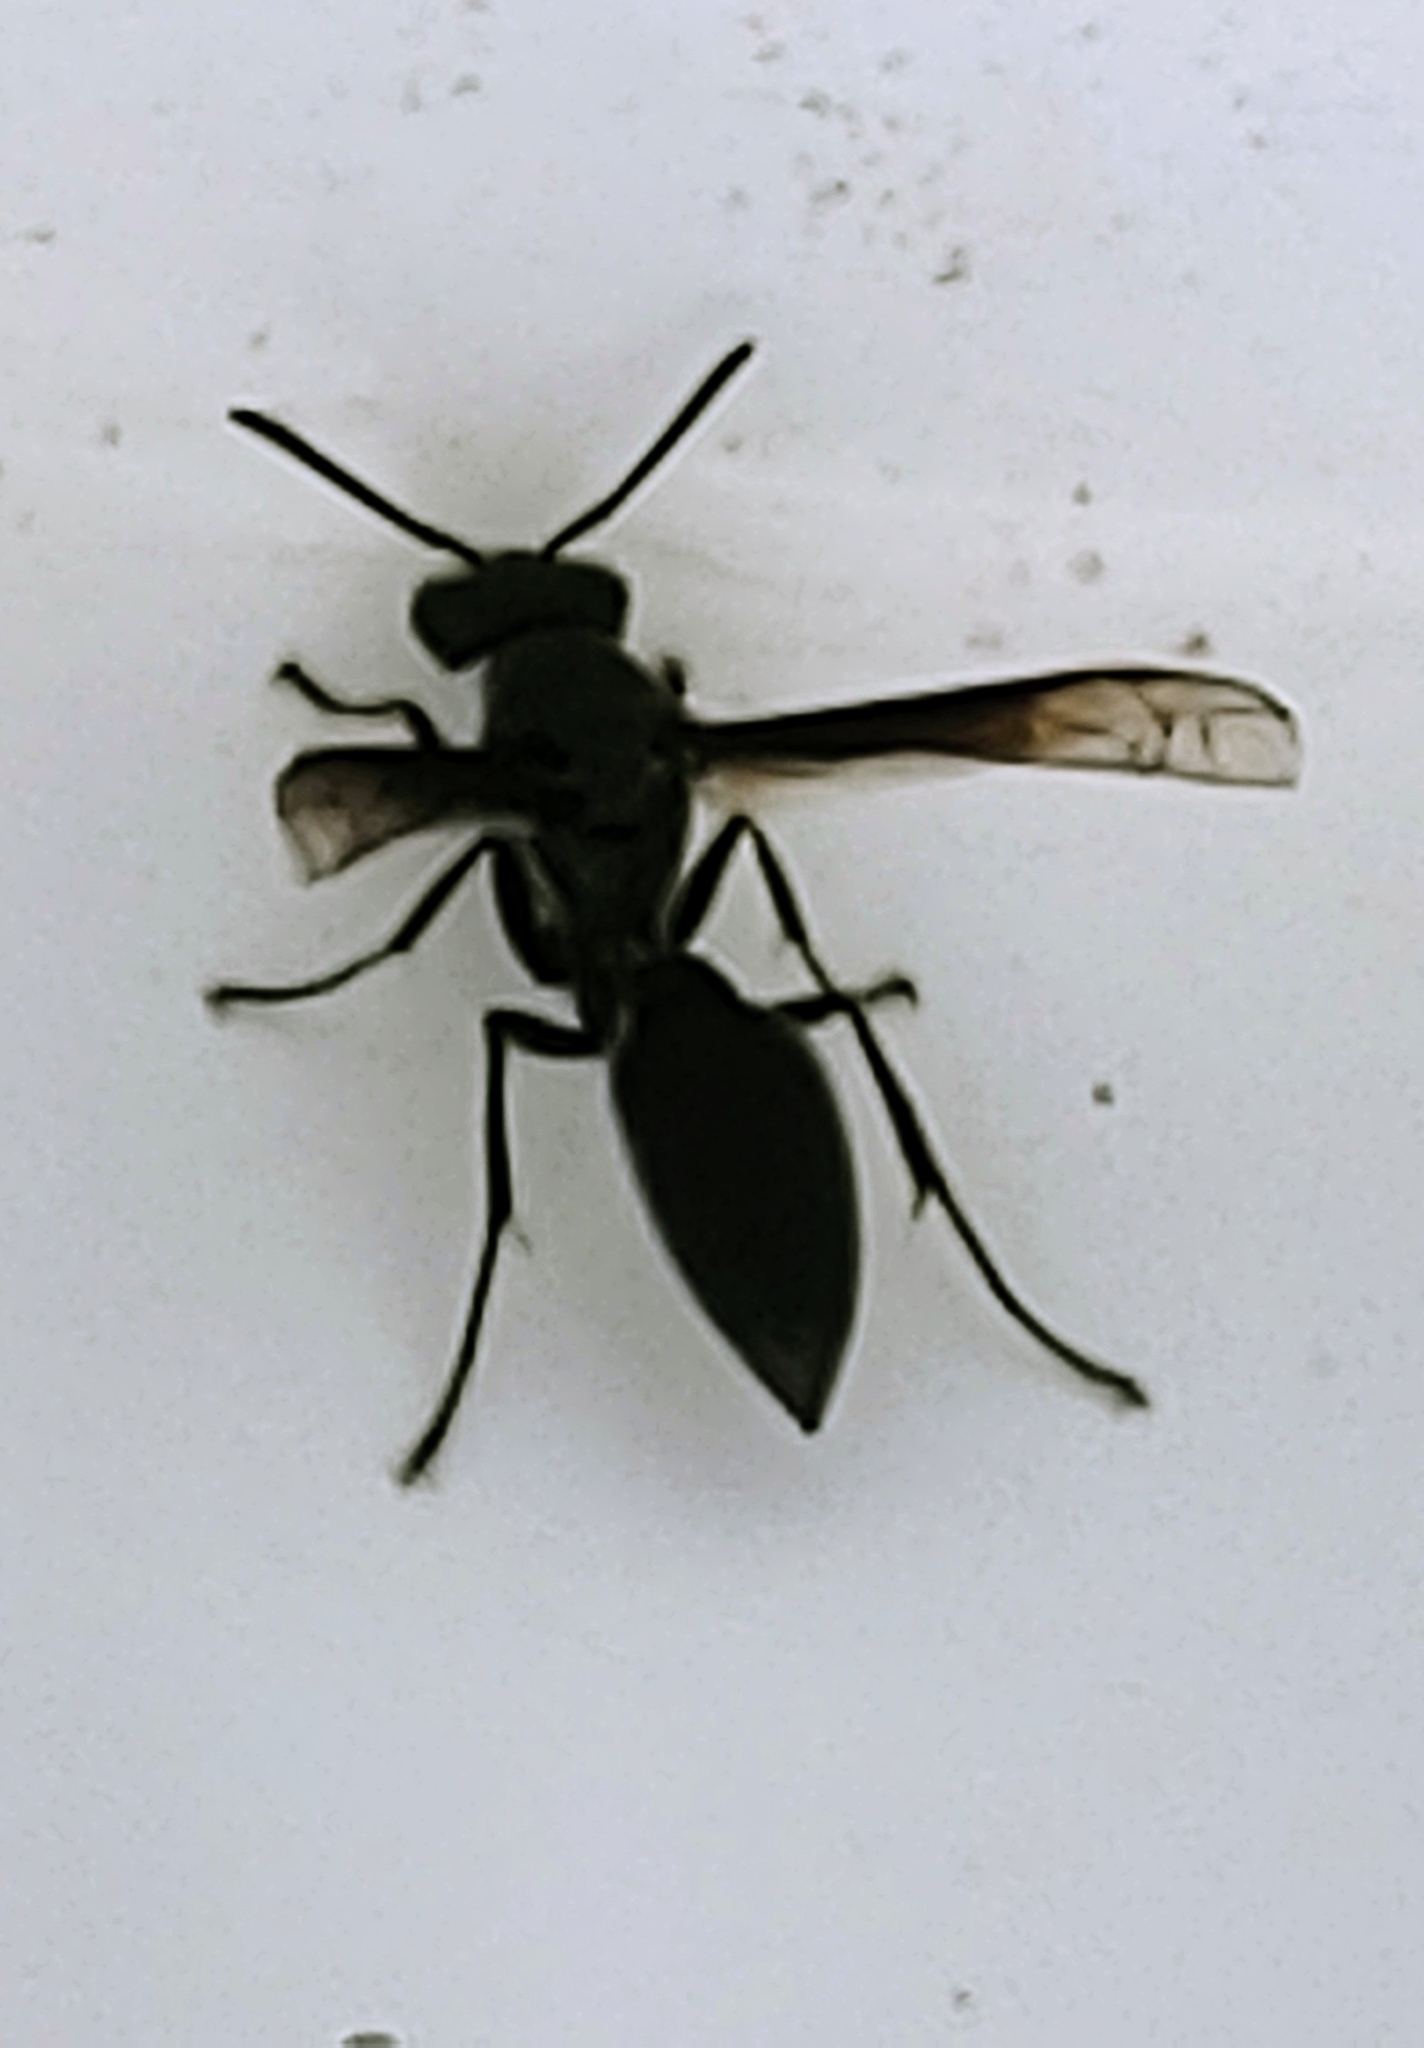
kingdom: Animalia
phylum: Arthropoda
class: Insecta
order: Hymenoptera
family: Eumenidae
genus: Polybia
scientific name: Polybia ignobilis
